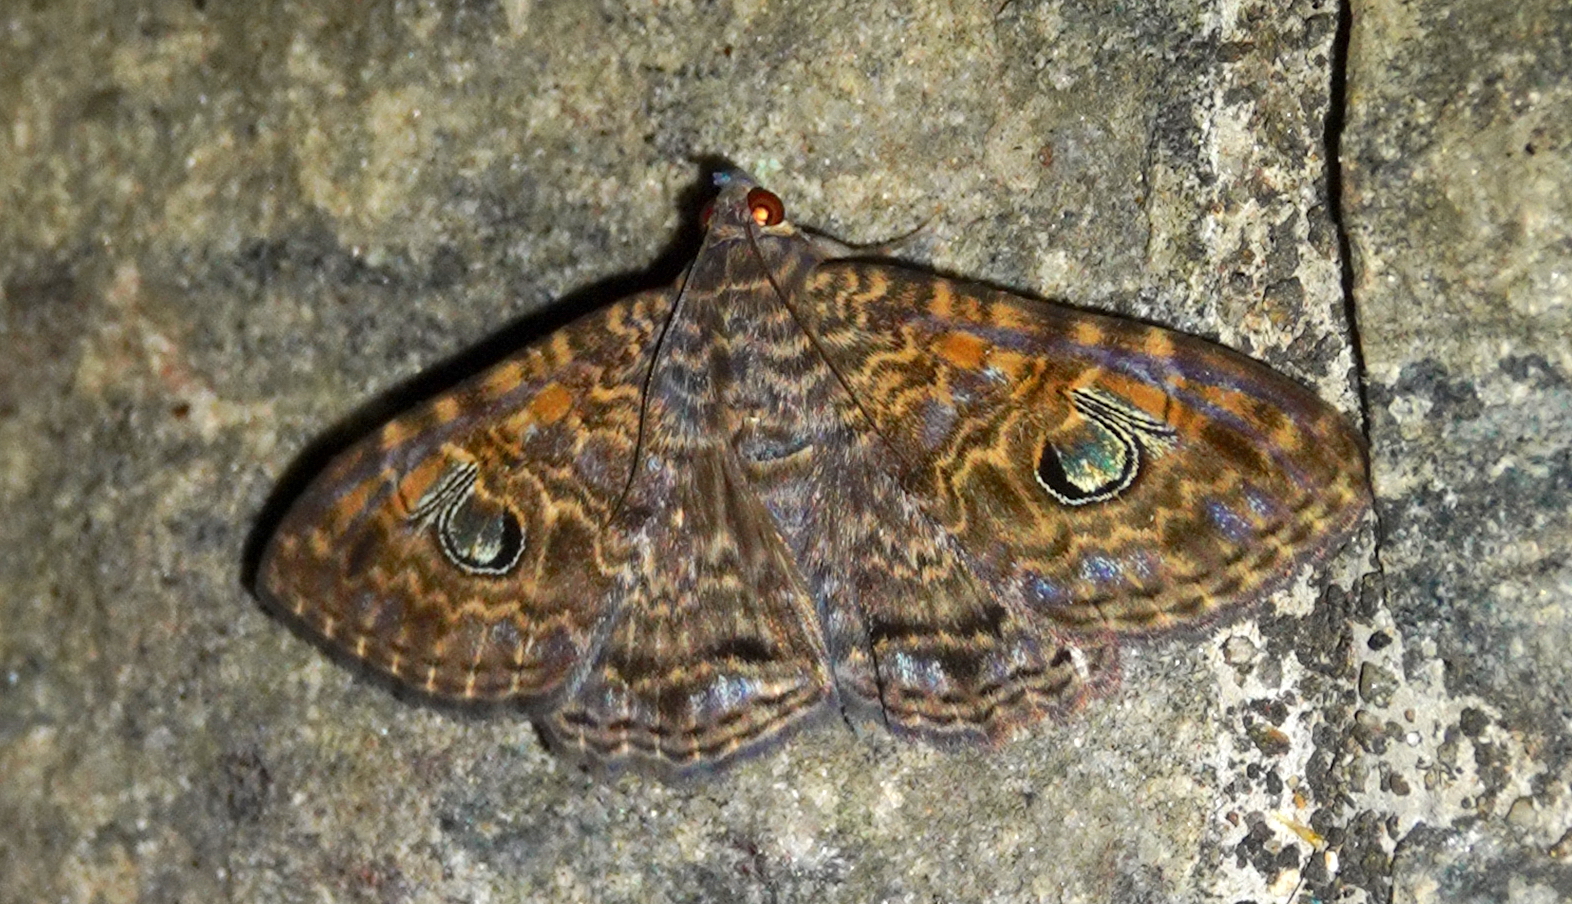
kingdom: Animalia
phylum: Arthropoda
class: Insecta
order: Lepidoptera
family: Erebidae
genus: Speiredonia
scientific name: Speiredonia obscura
